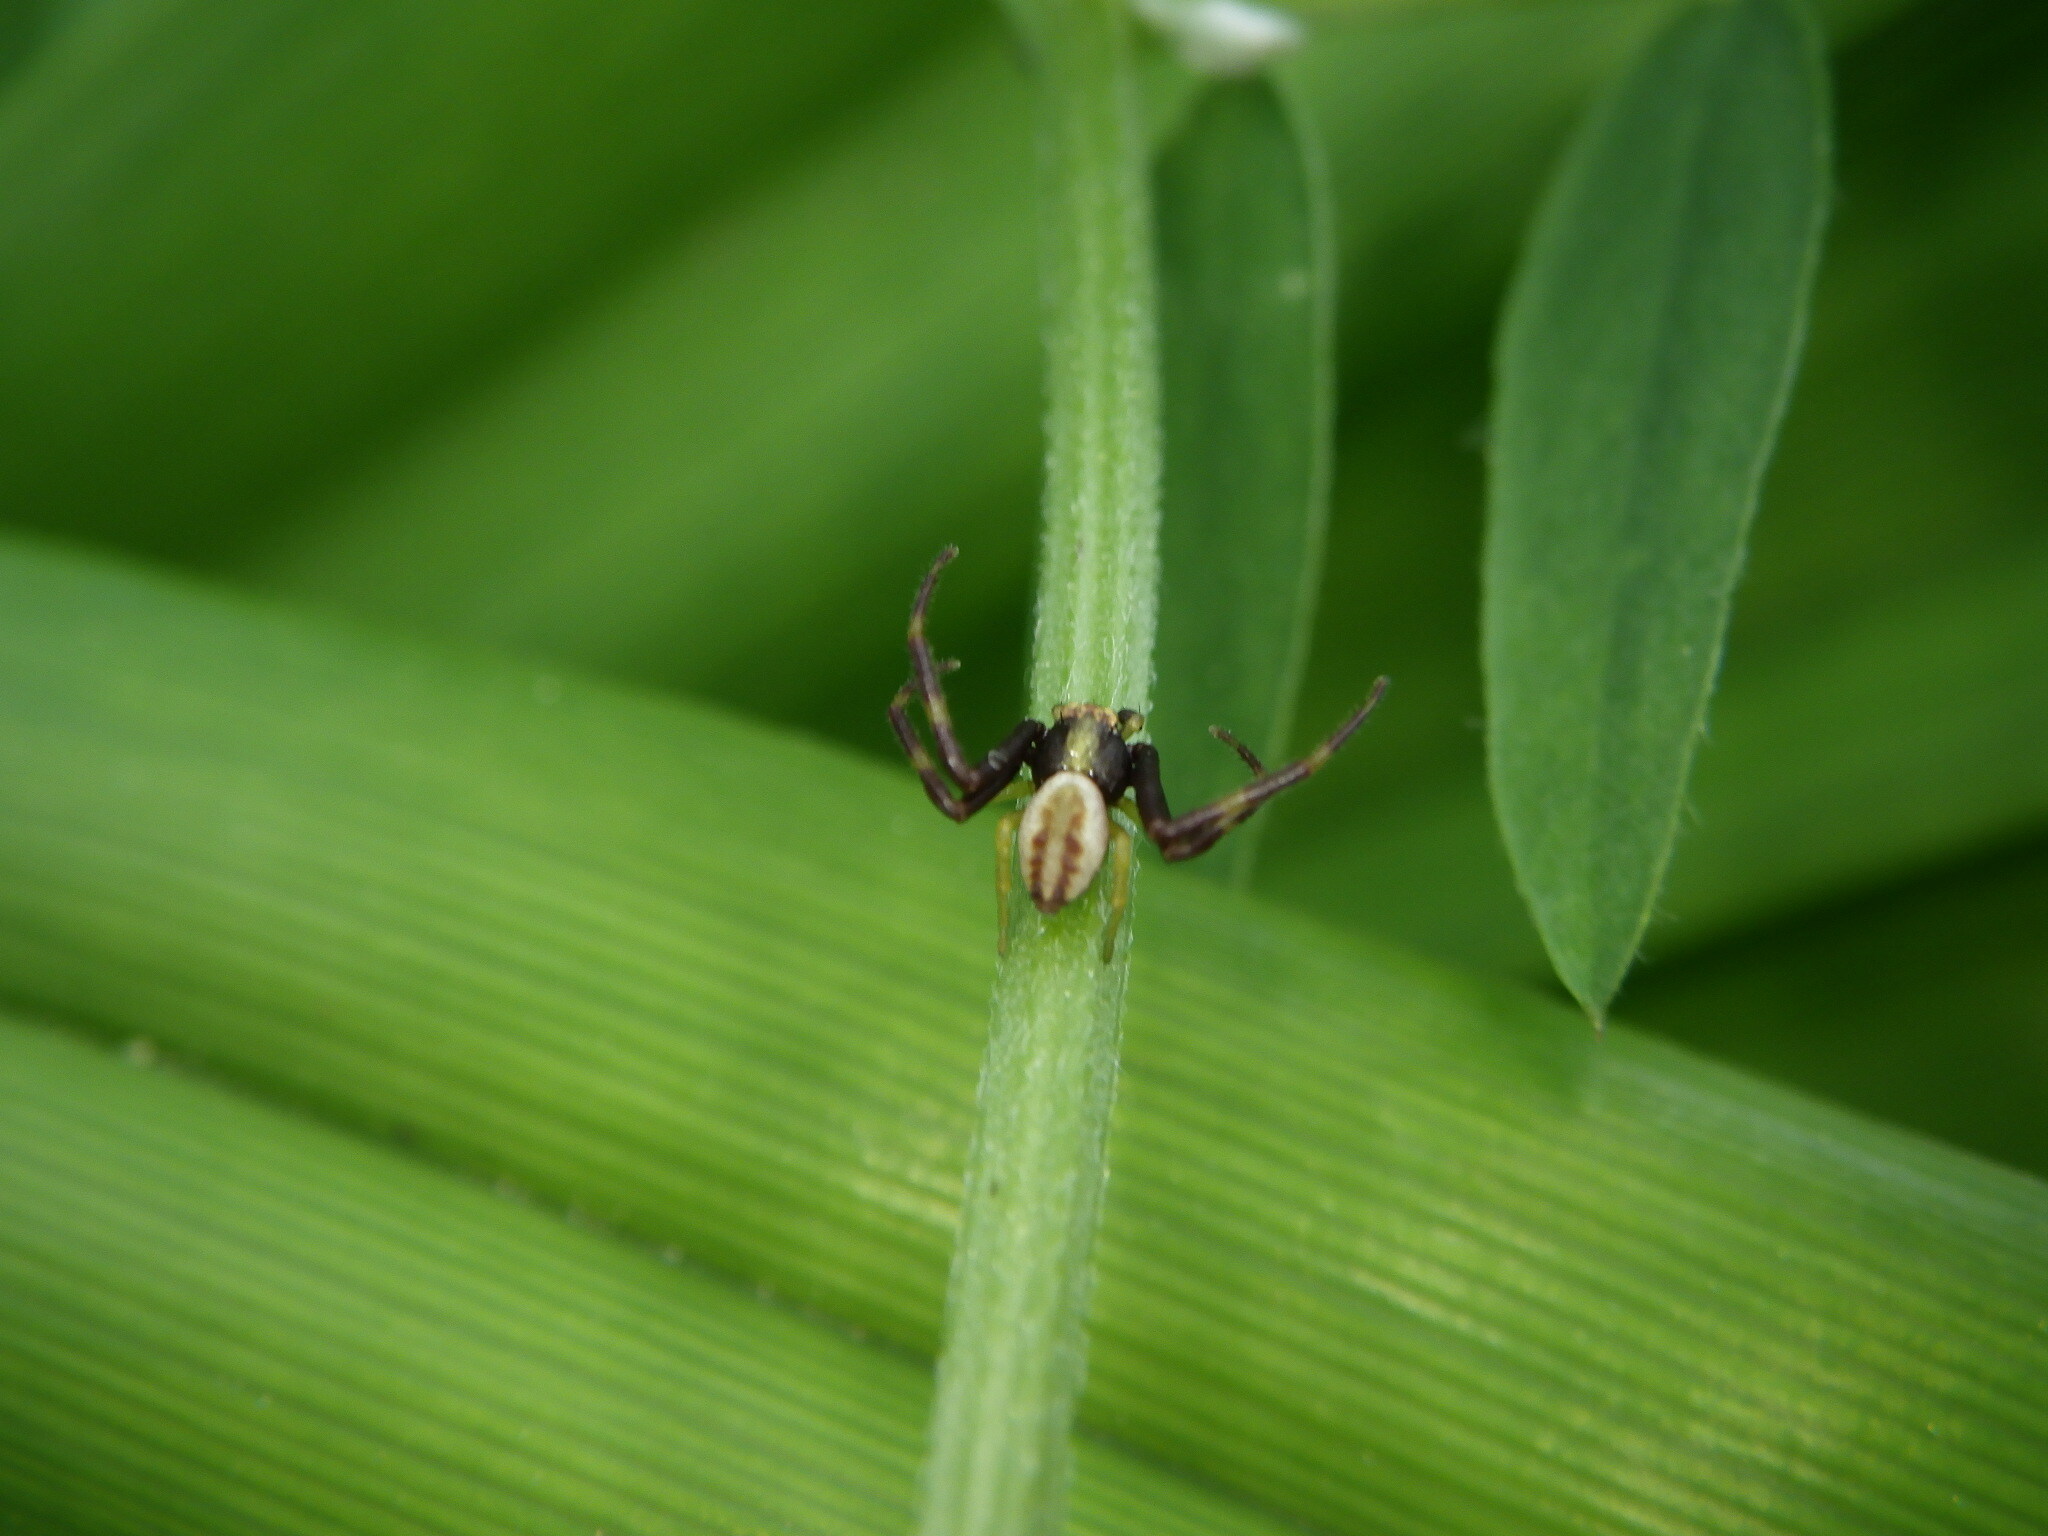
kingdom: Animalia
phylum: Arthropoda
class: Arachnida
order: Araneae
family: Thomisidae
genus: Misumena
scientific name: Misumena vatia
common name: Goldenrod crab spider
